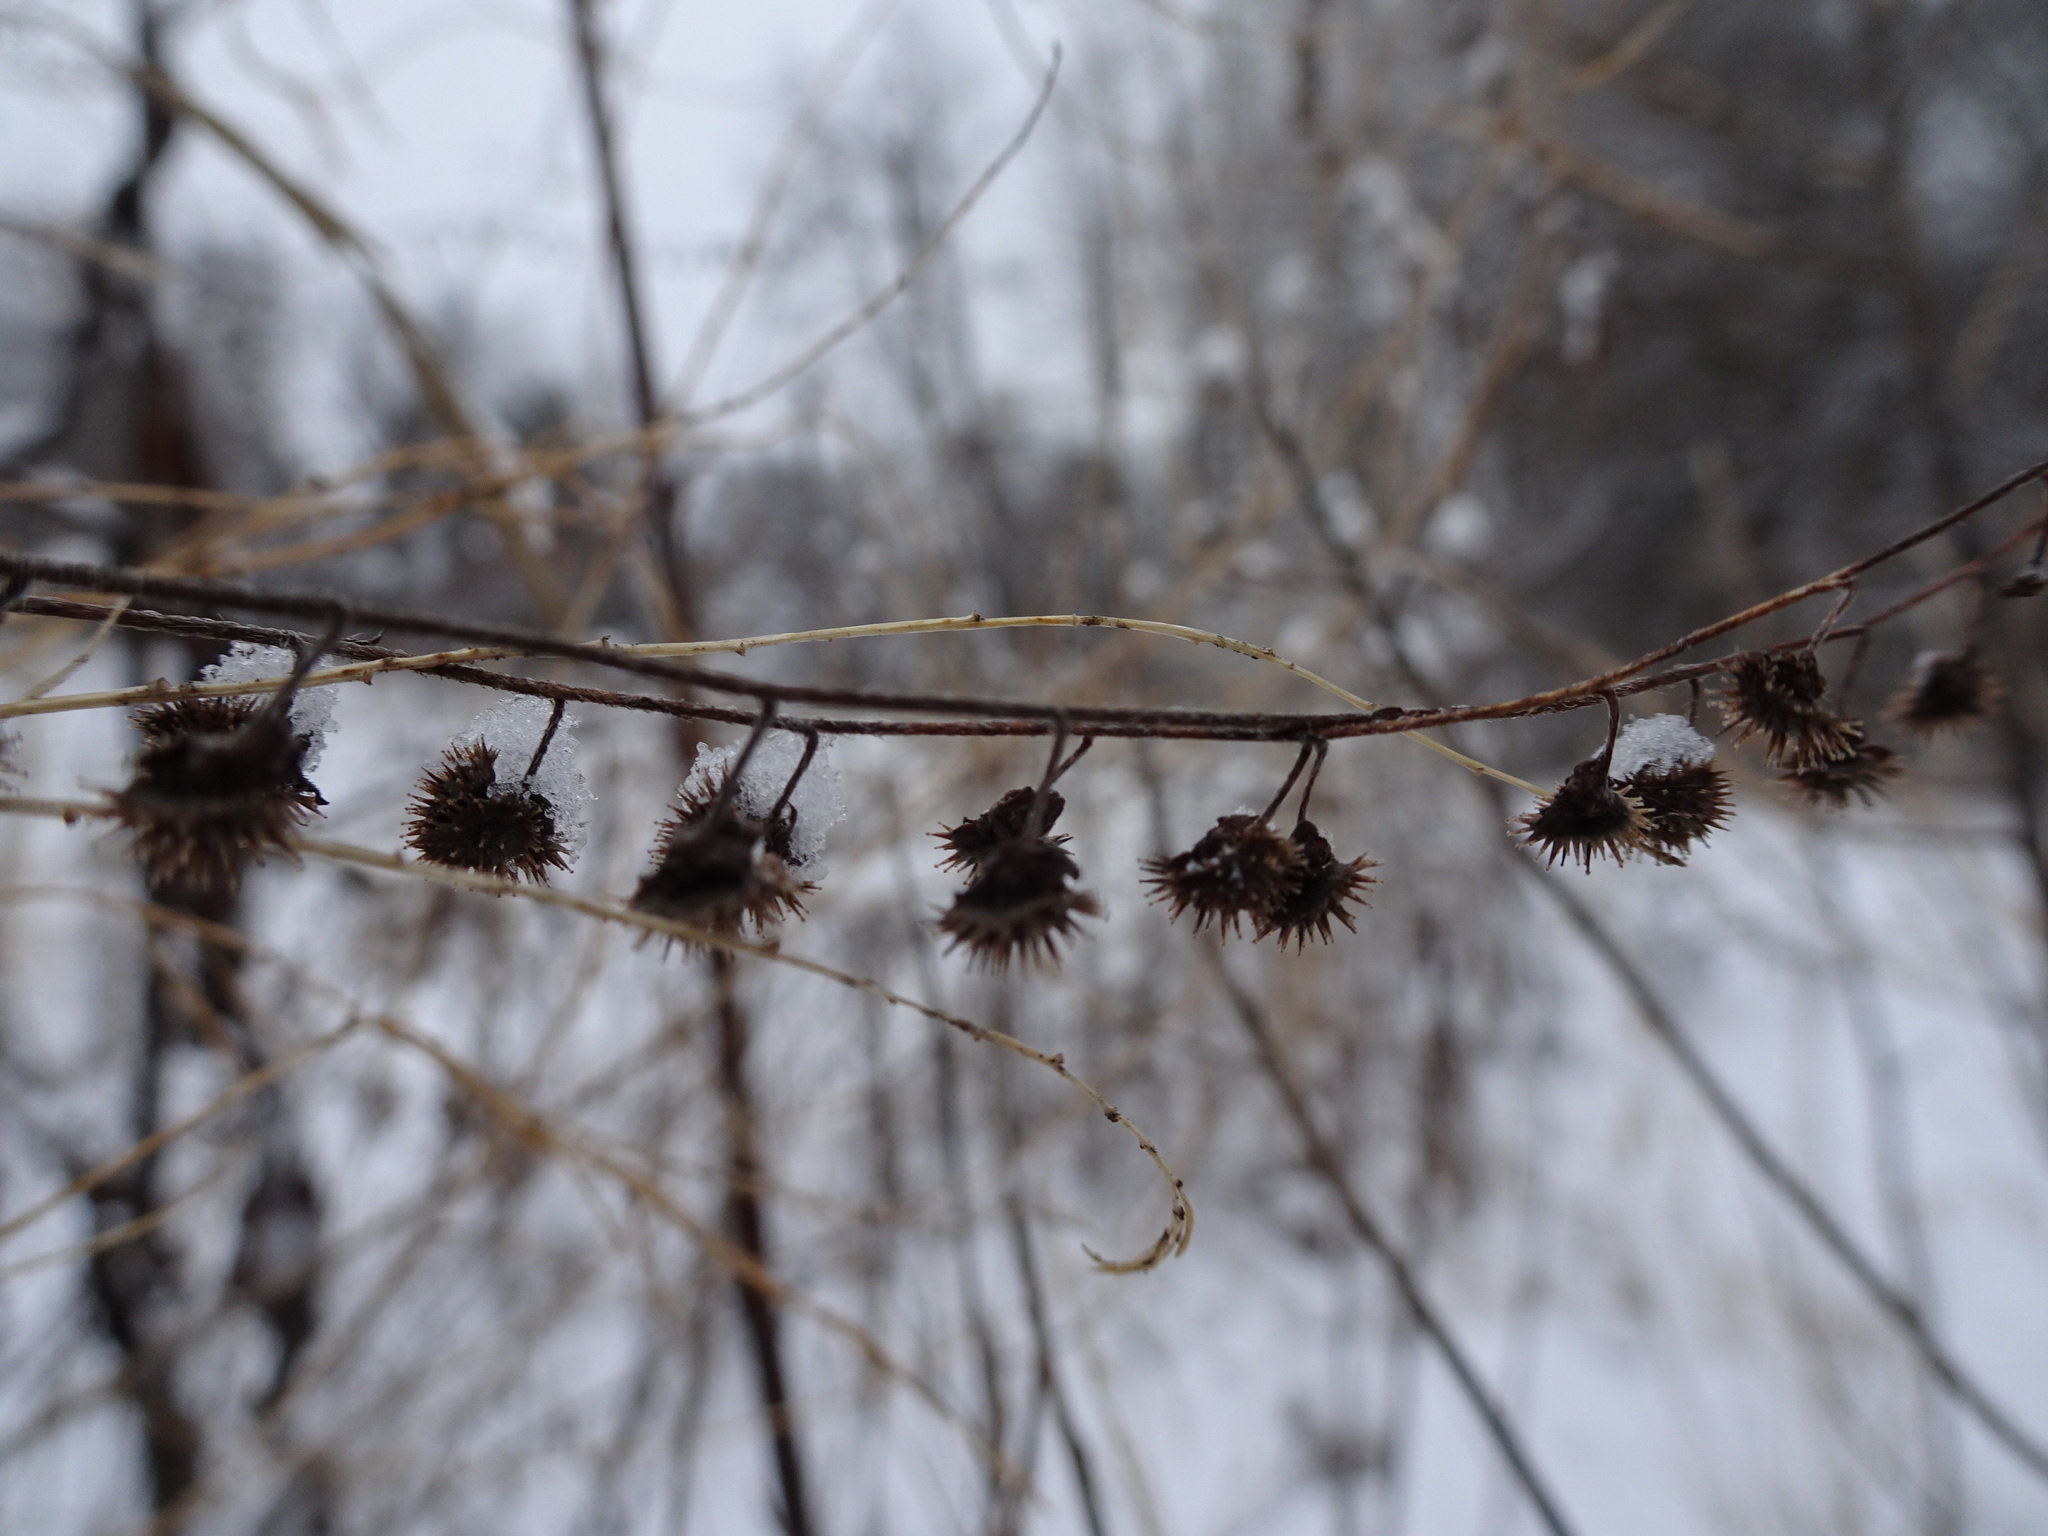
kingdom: Plantae
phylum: Tracheophyta
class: Magnoliopsida
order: Boraginales
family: Boraginaceae
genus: Hackelia
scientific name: Hackelia virginiana
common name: Beggar's-lice
